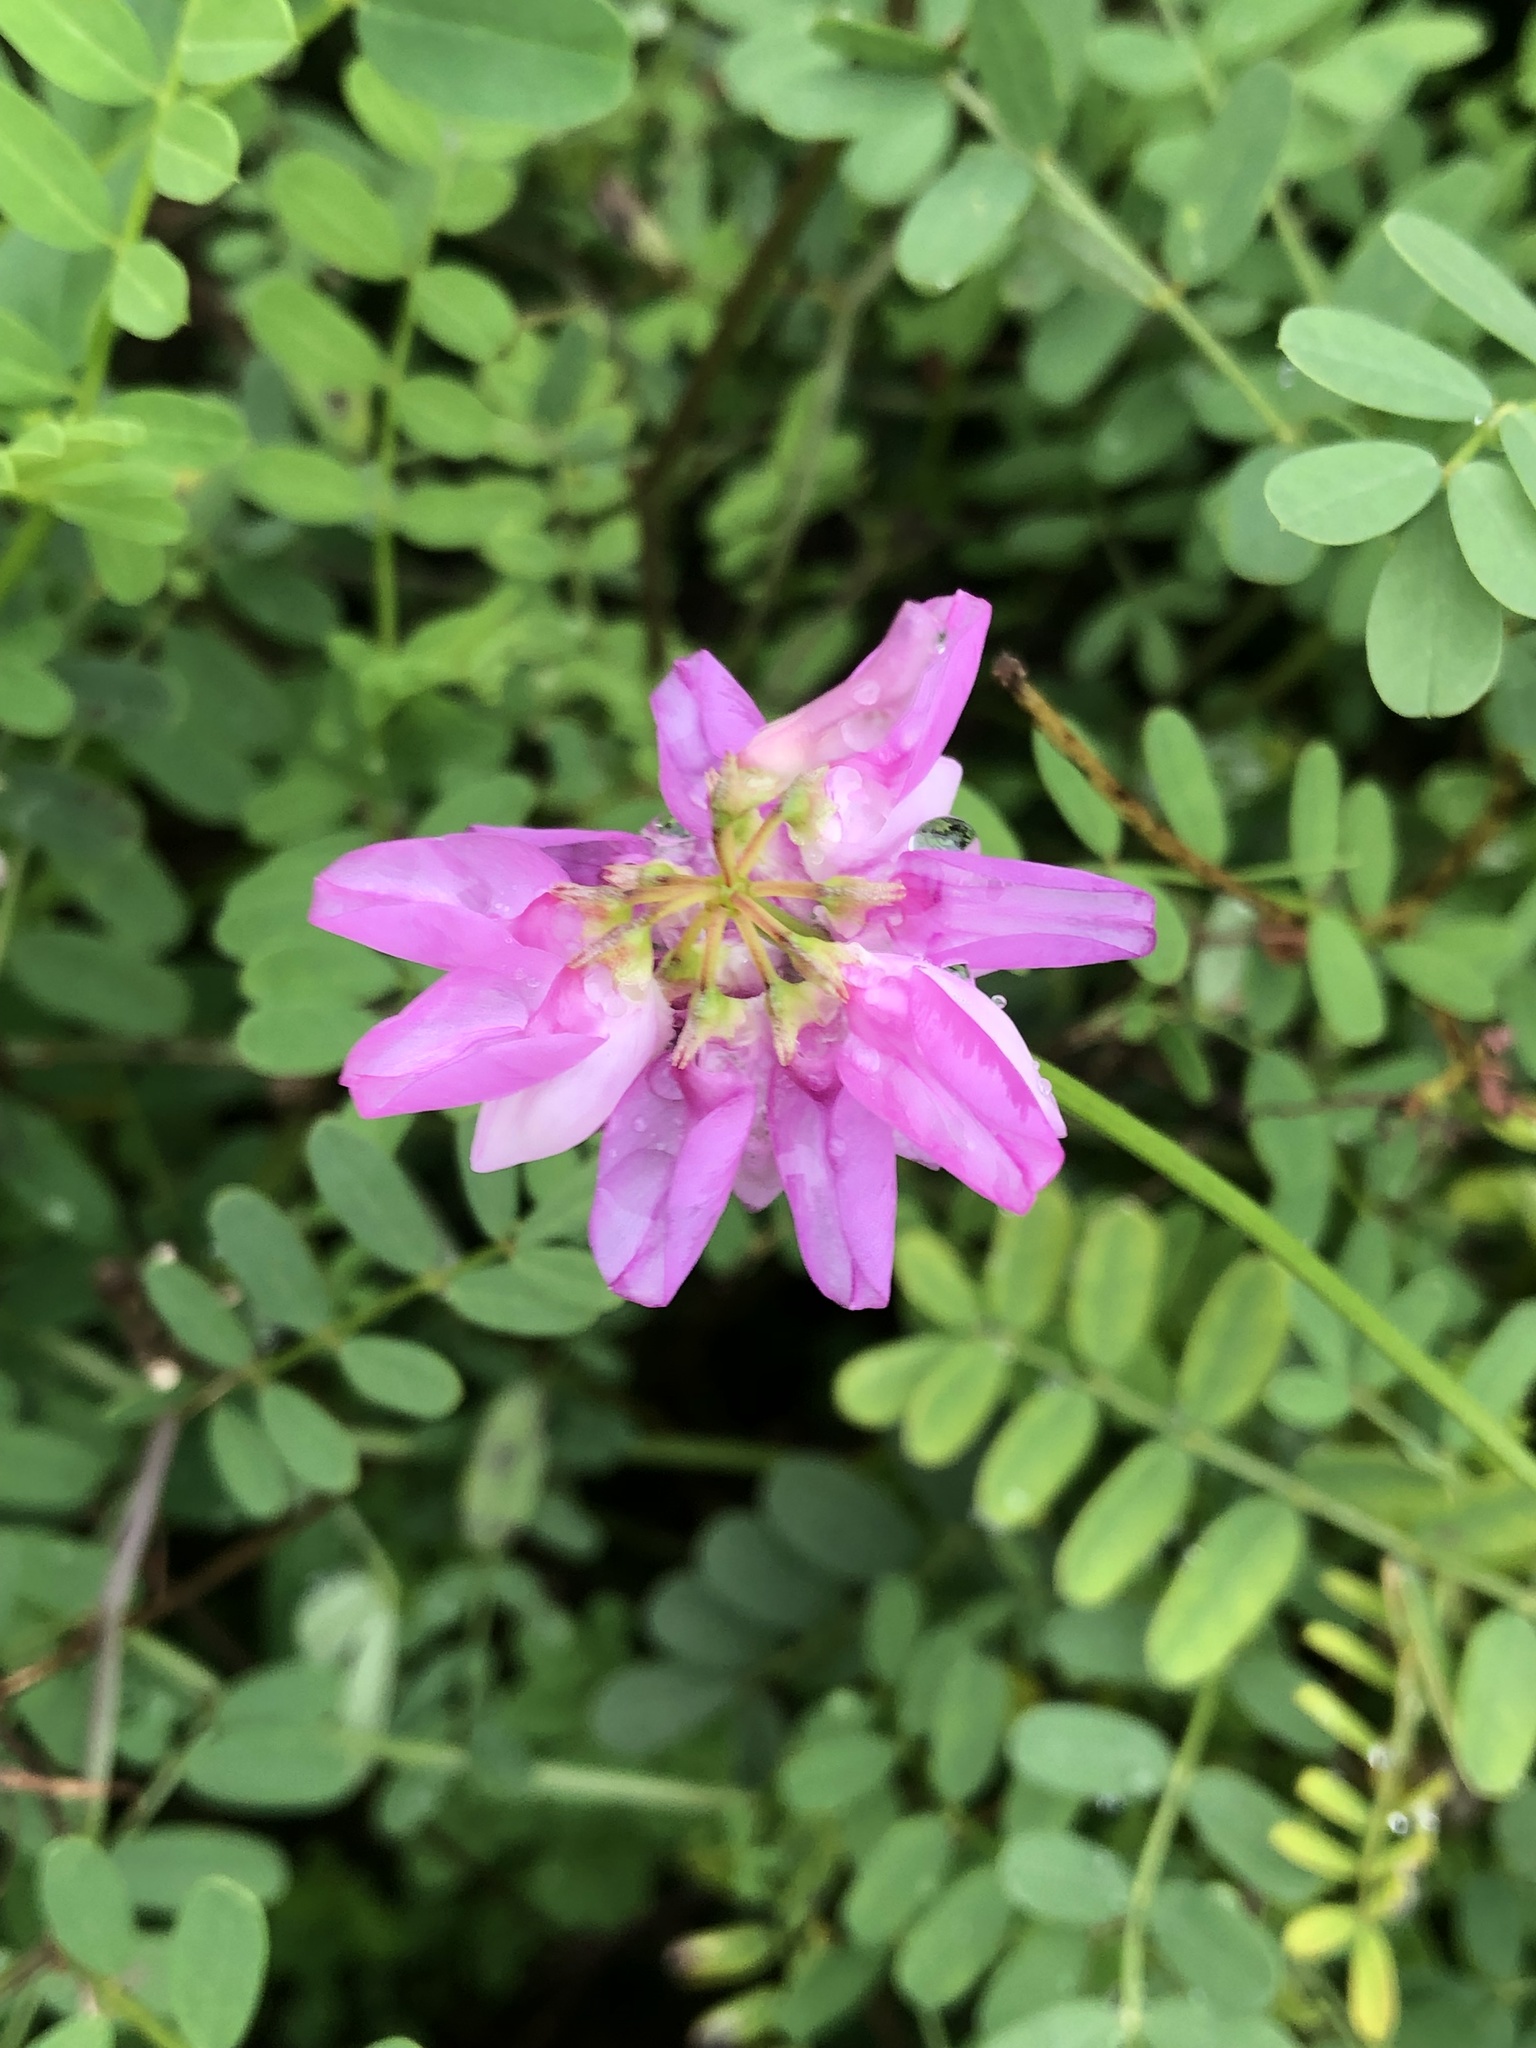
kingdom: Plantae
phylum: Tracheophyta
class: Magnoliopsida
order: Fabales
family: Fabaceae
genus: Coronilla
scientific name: Coronilla varia
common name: Crownvetch
